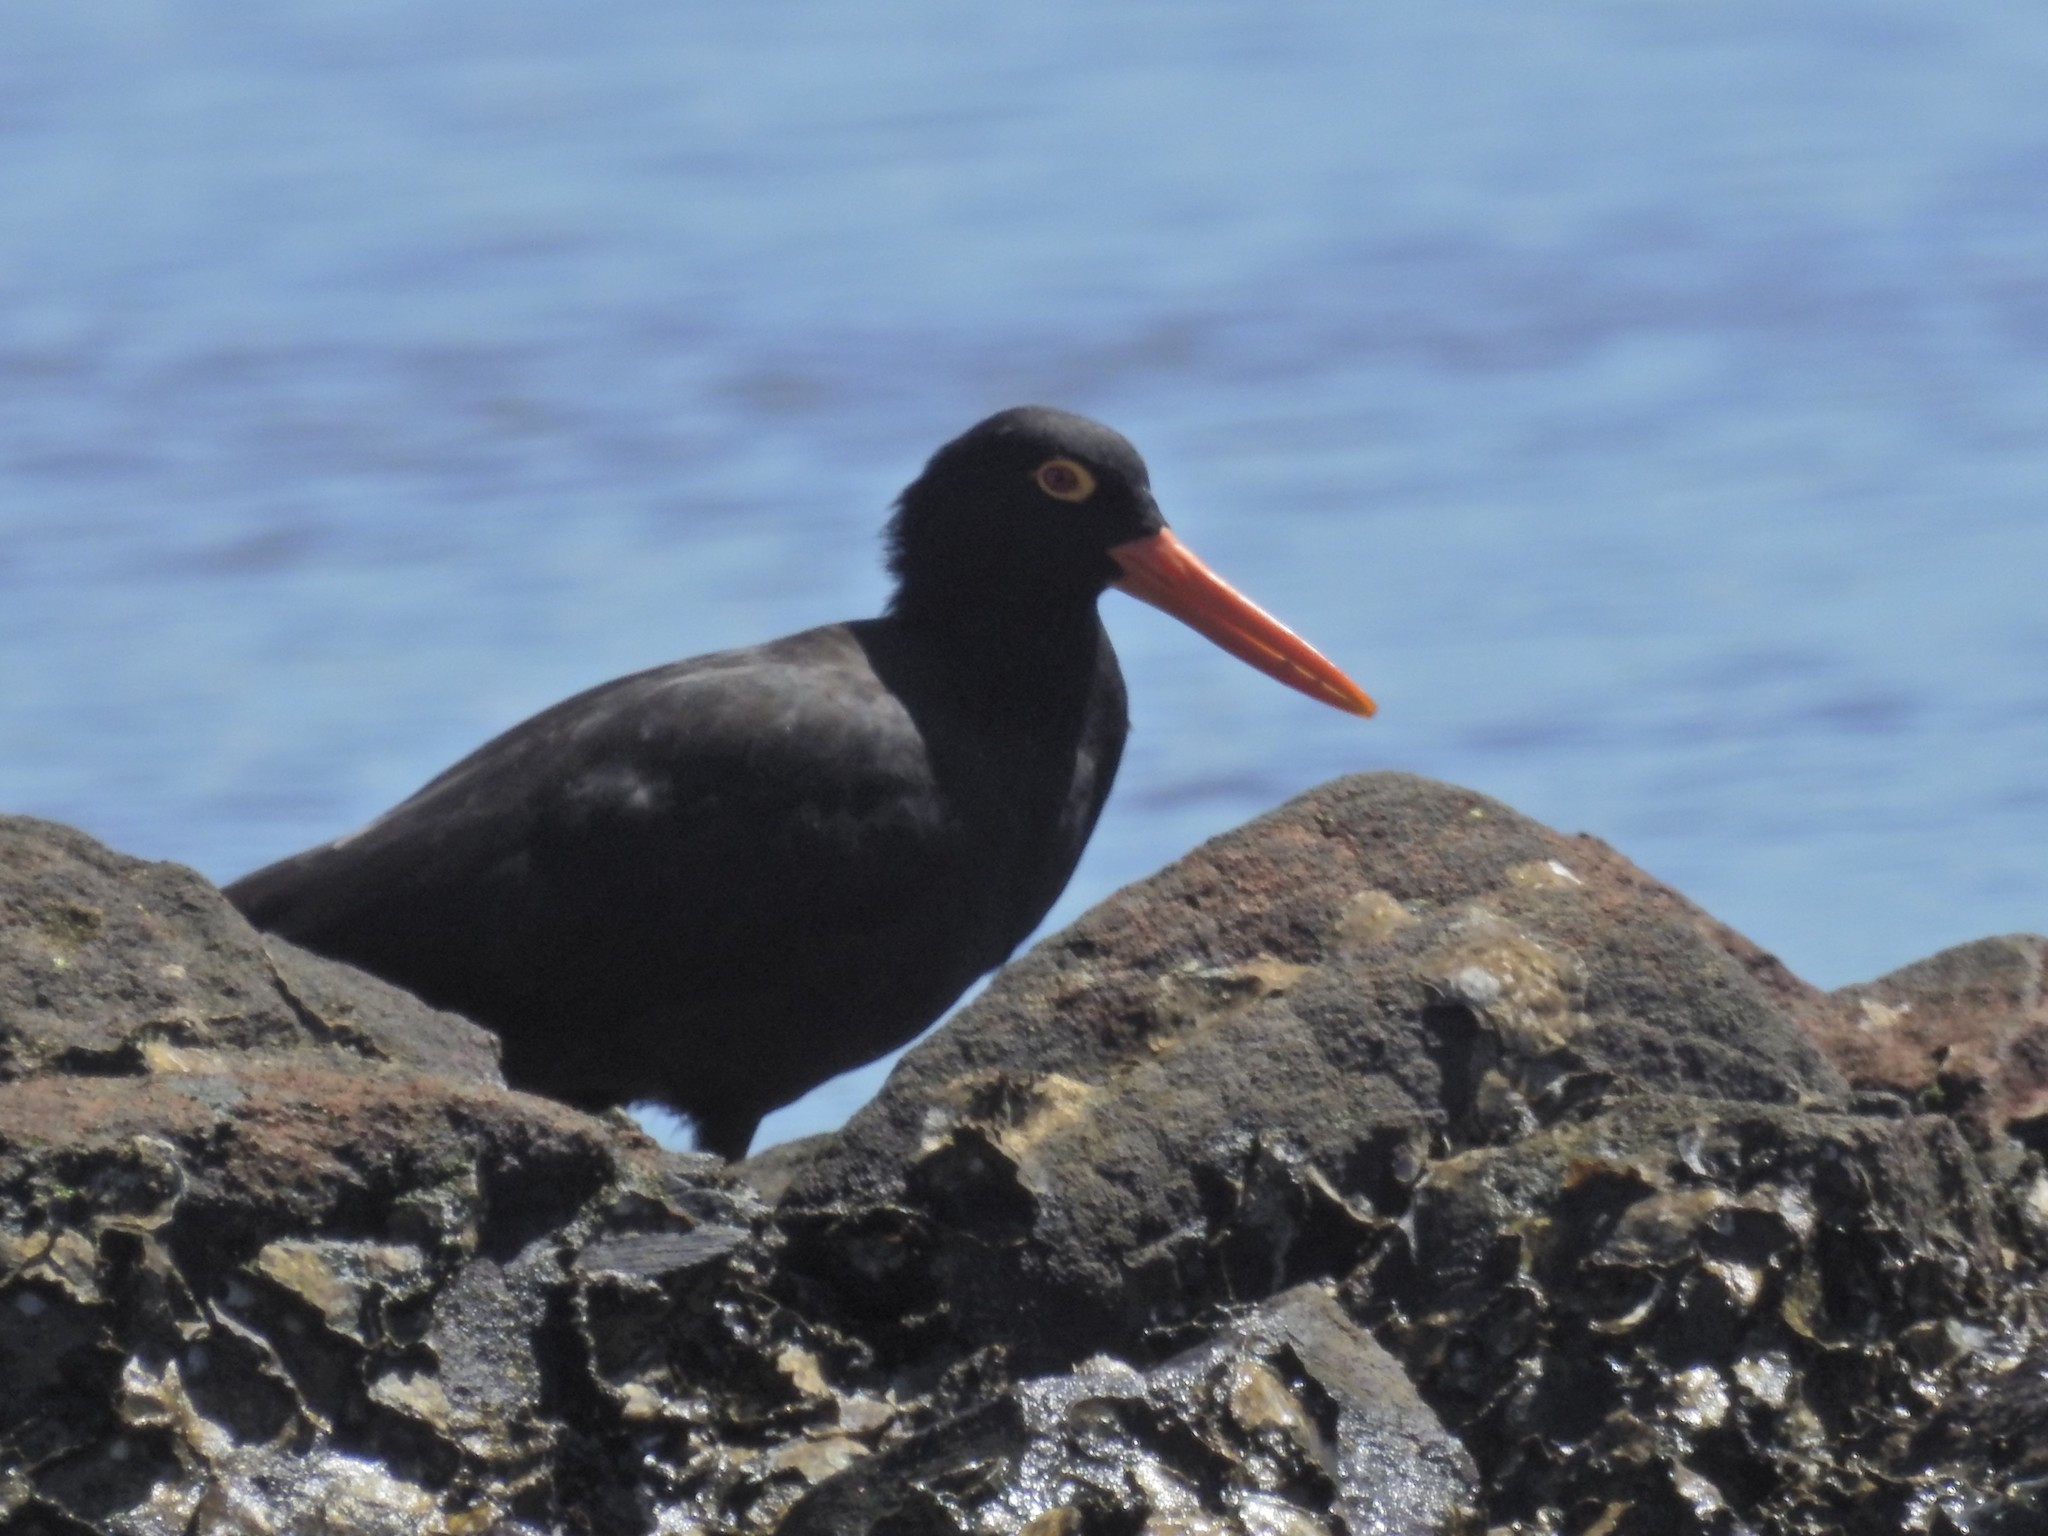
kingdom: Animalia
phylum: Chordata
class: Aves
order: Charadriiformes
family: Haematopodidae
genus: Haematopus
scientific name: Haematopus fuliginosus
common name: Sooty oystercatcher
